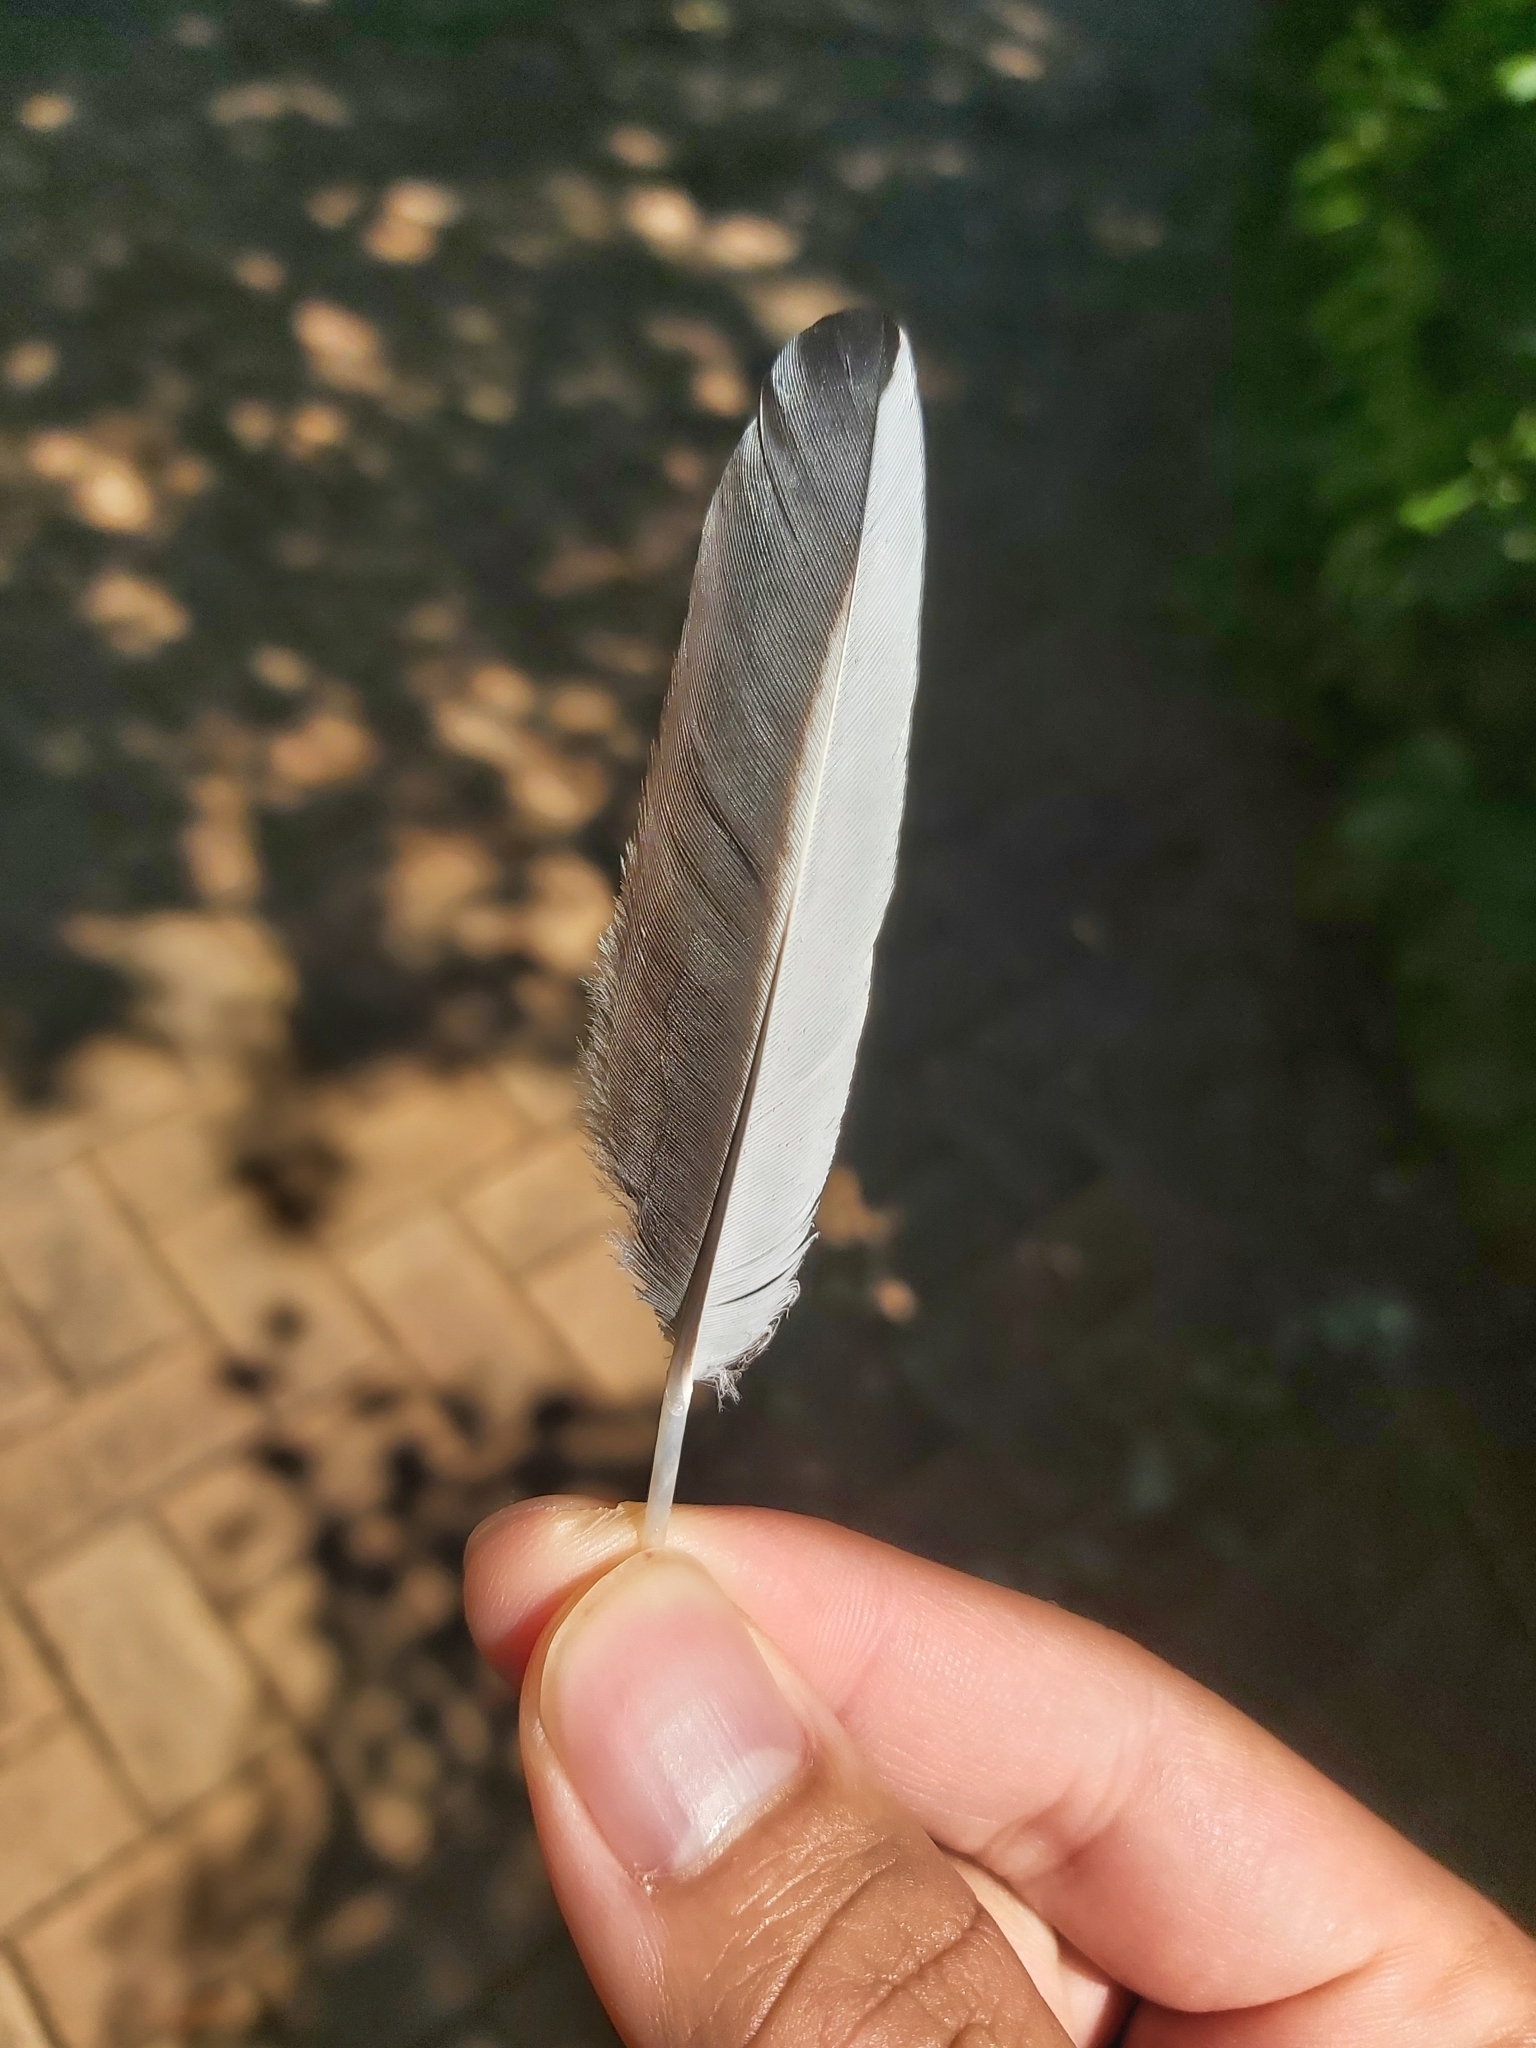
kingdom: Animalia
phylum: Chordata
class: Aves
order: Passeriformes
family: Cracticidae
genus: Gymnorhina
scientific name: Gymnorhina tibicen
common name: Australian magpie
